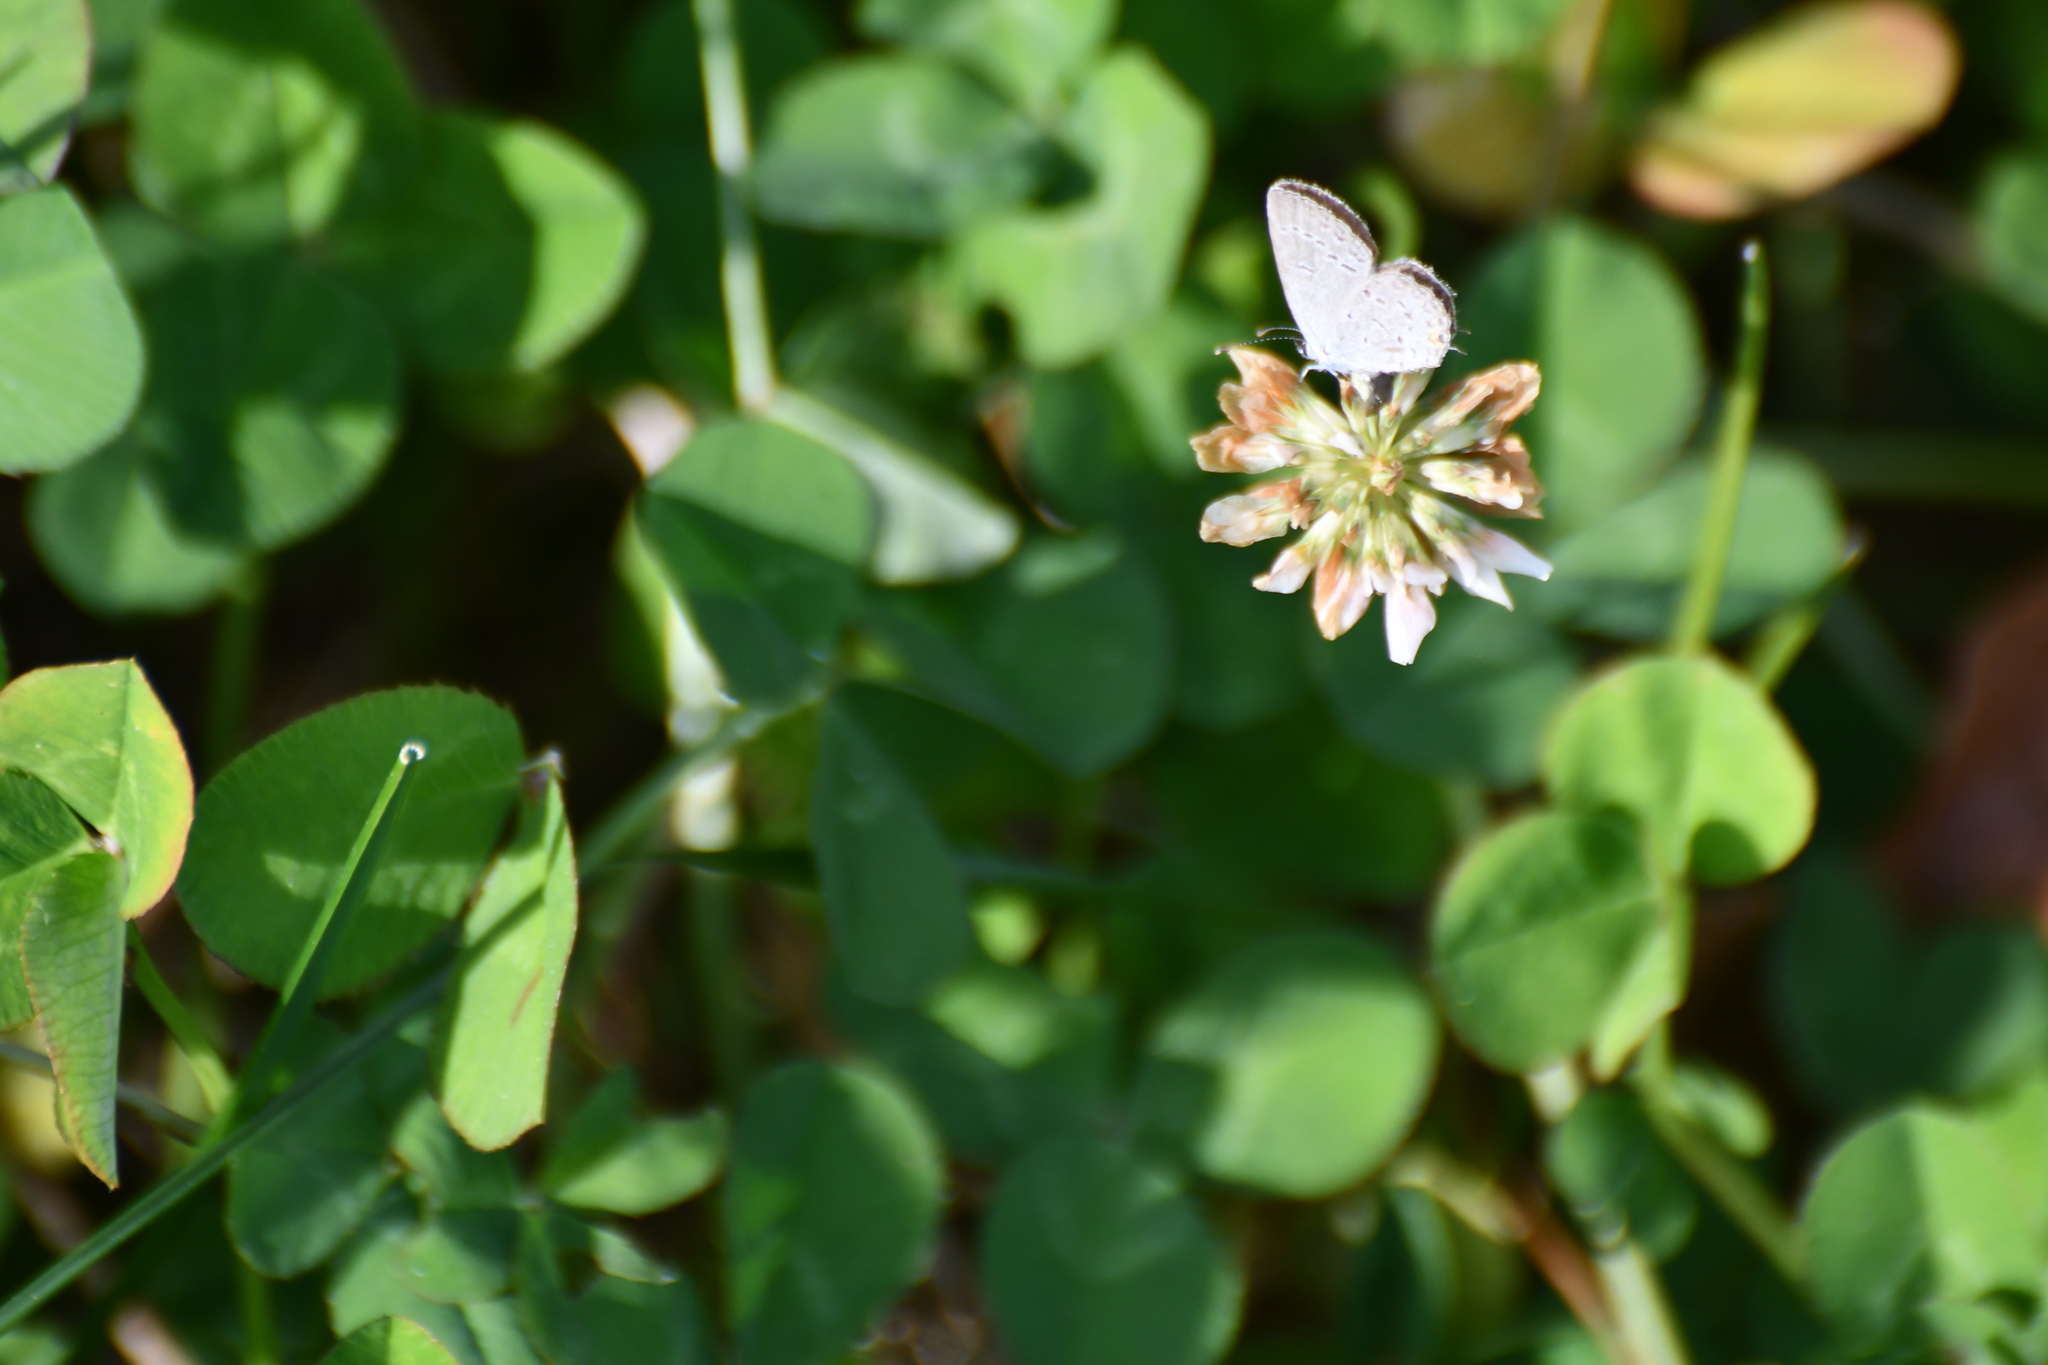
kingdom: Animalia
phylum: Arthropoda
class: Insecta
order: Lepidoptera
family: Lycaenidae
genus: Elkalyce
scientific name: Elkalyce comyntas
